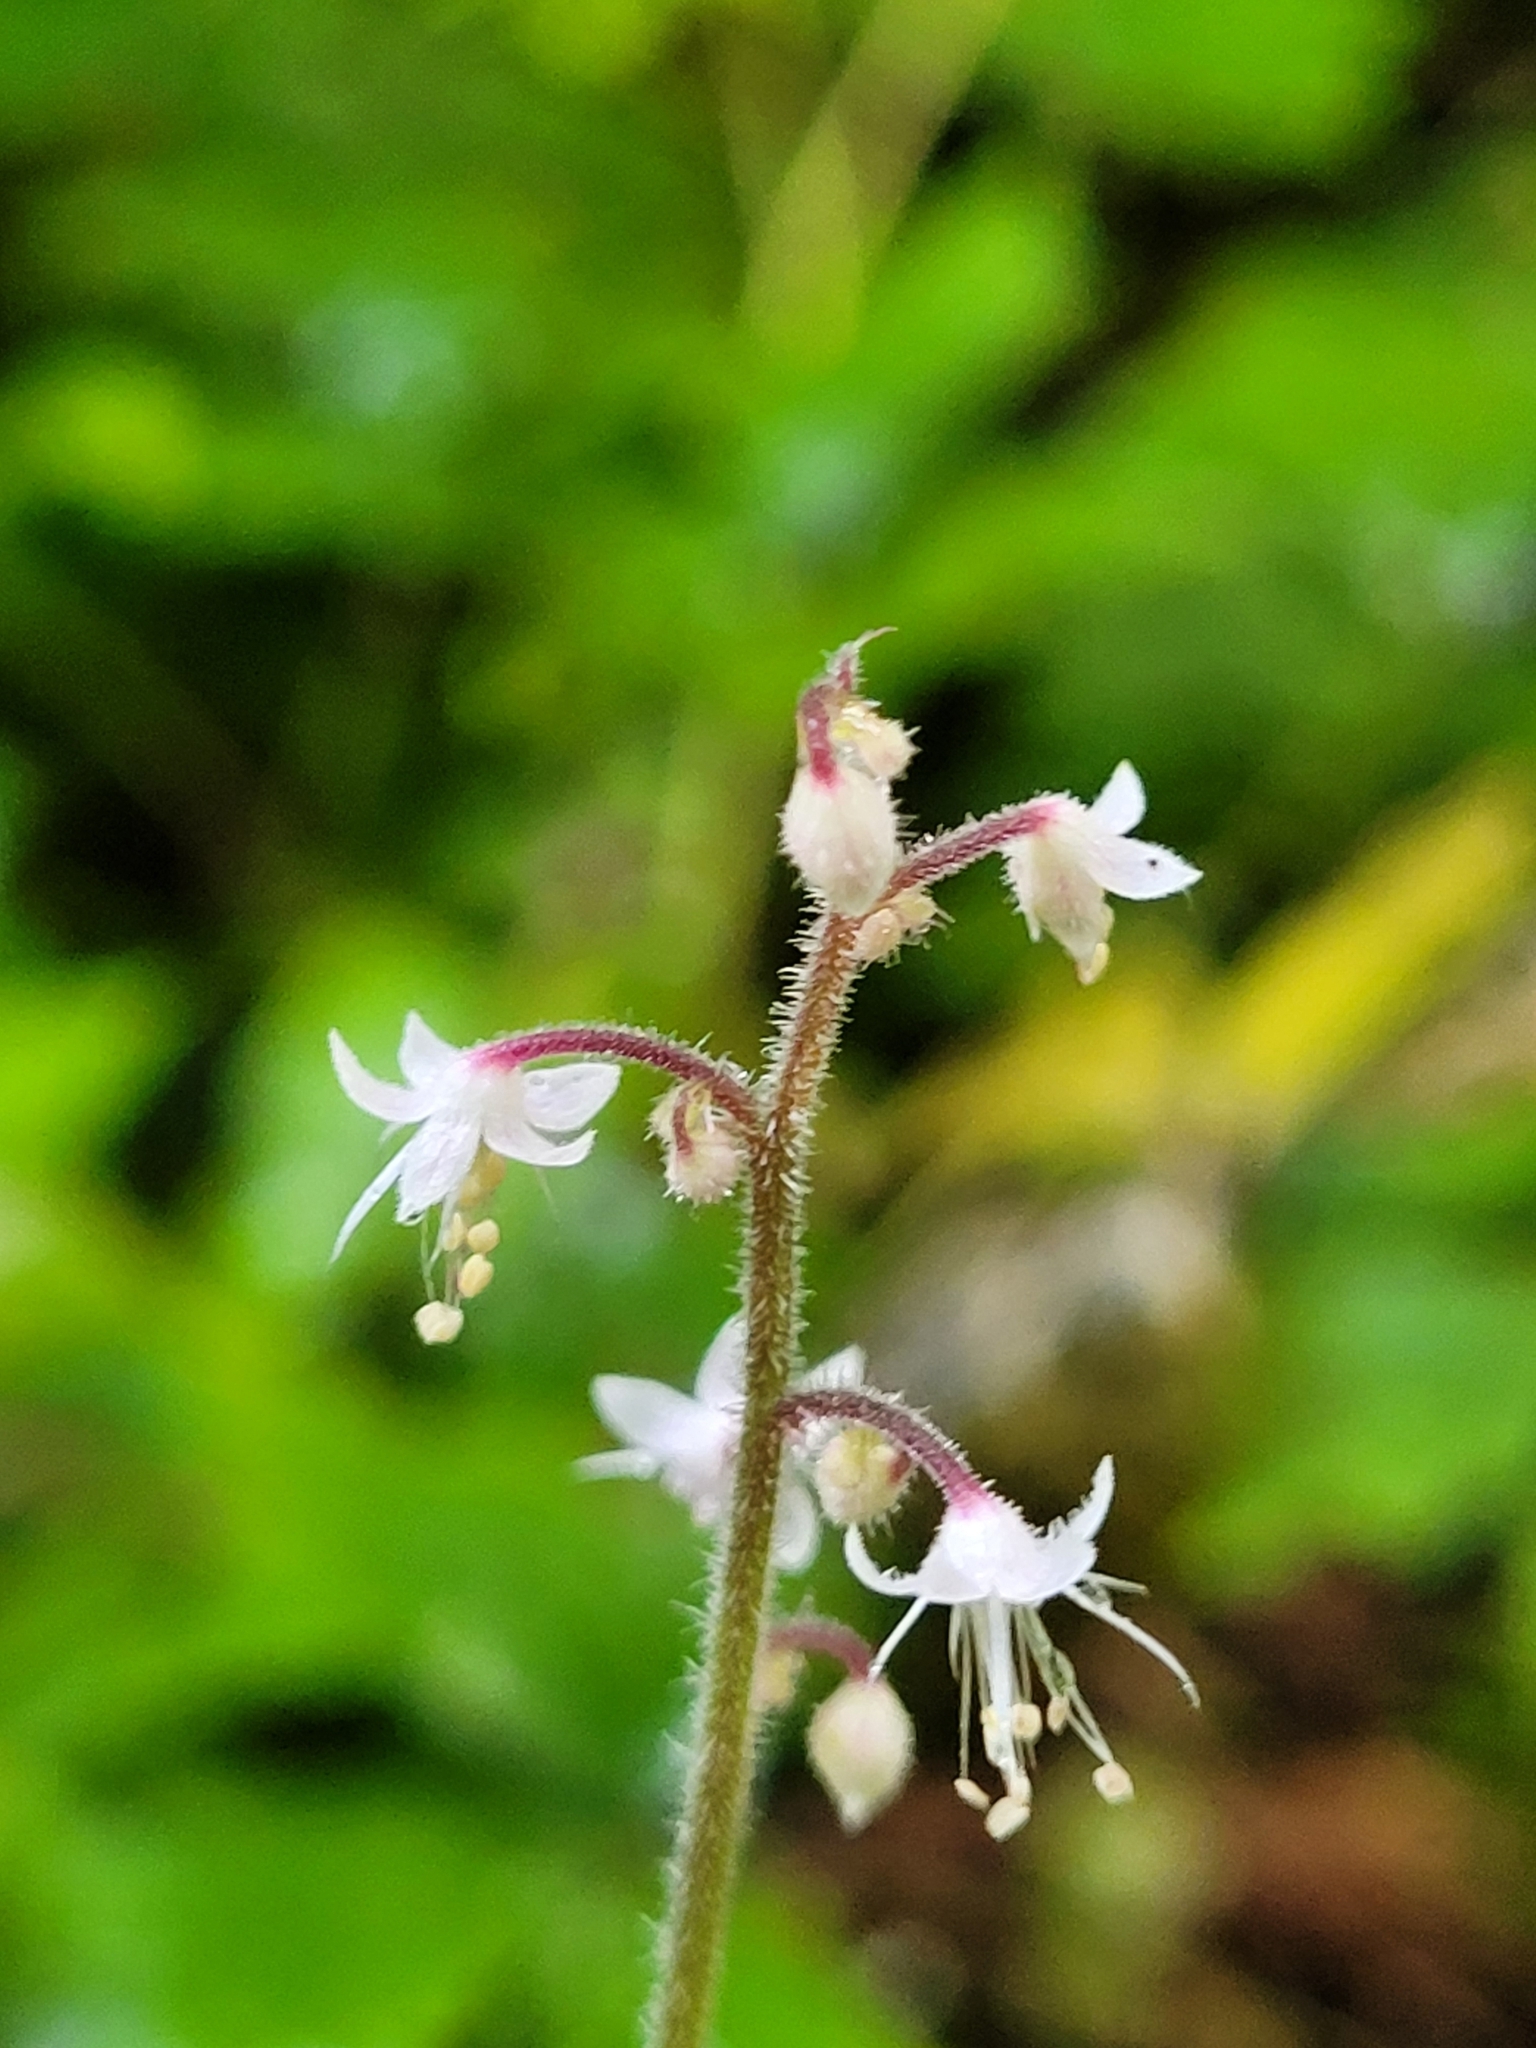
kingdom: Plantae
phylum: Tracheophyta
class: Magnoliopsida
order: Saxifragales
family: Saxifragaceae
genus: Tiarella
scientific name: Tiarella trifoliata
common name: Sugar-scoop
